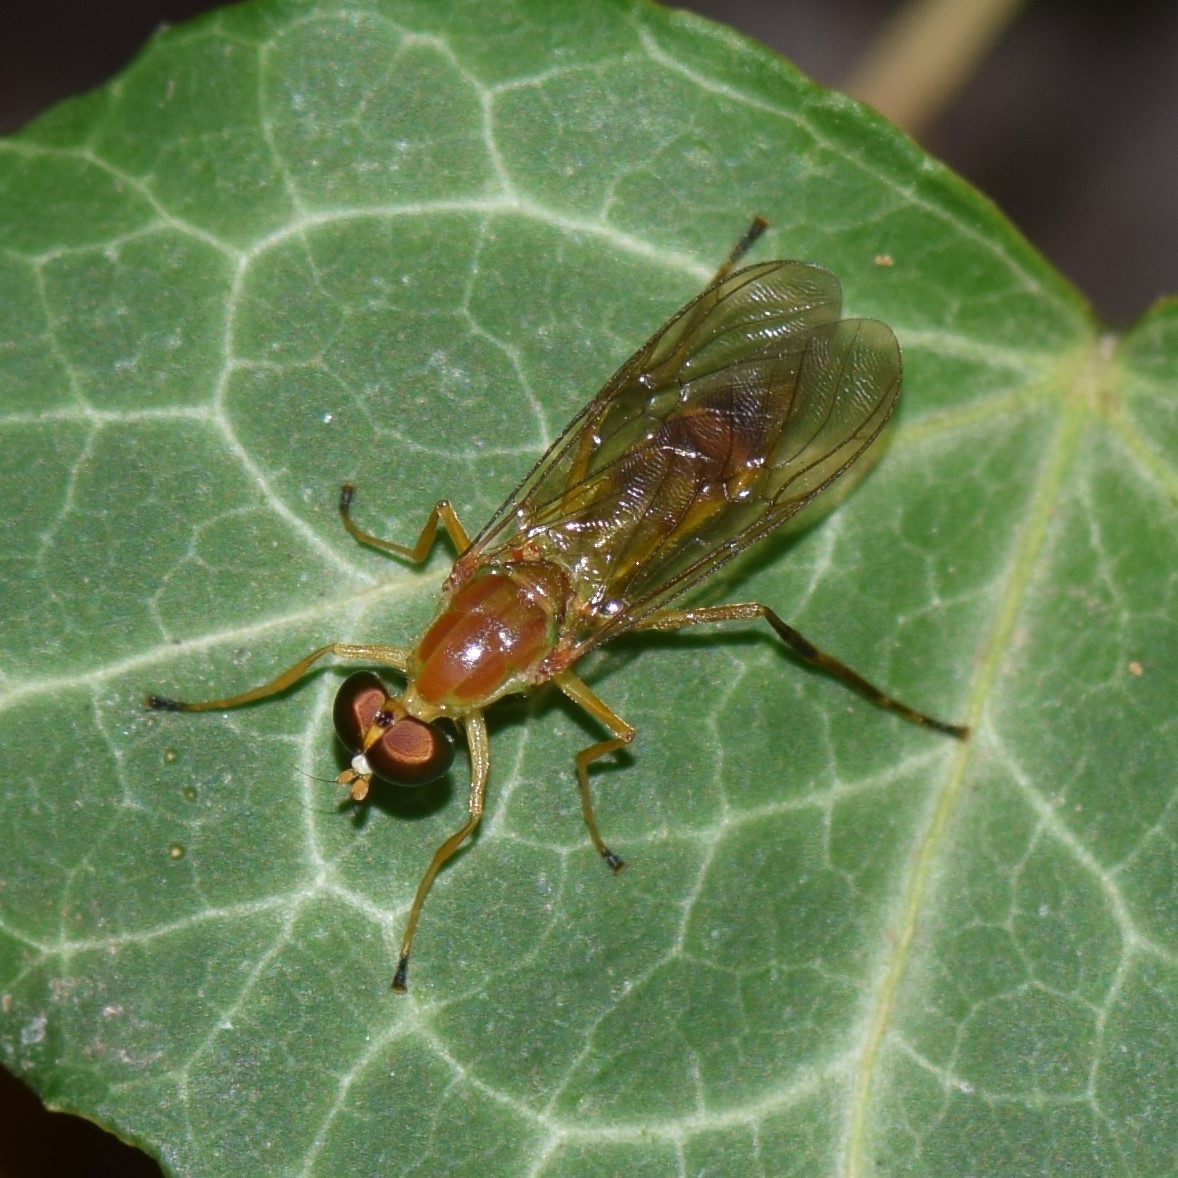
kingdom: Animalia
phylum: Arthropoda
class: Insecta
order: Diptera
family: Stratiomyidae
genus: Ptecticus
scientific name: Ptecticus trivittatus
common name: Compost fly
